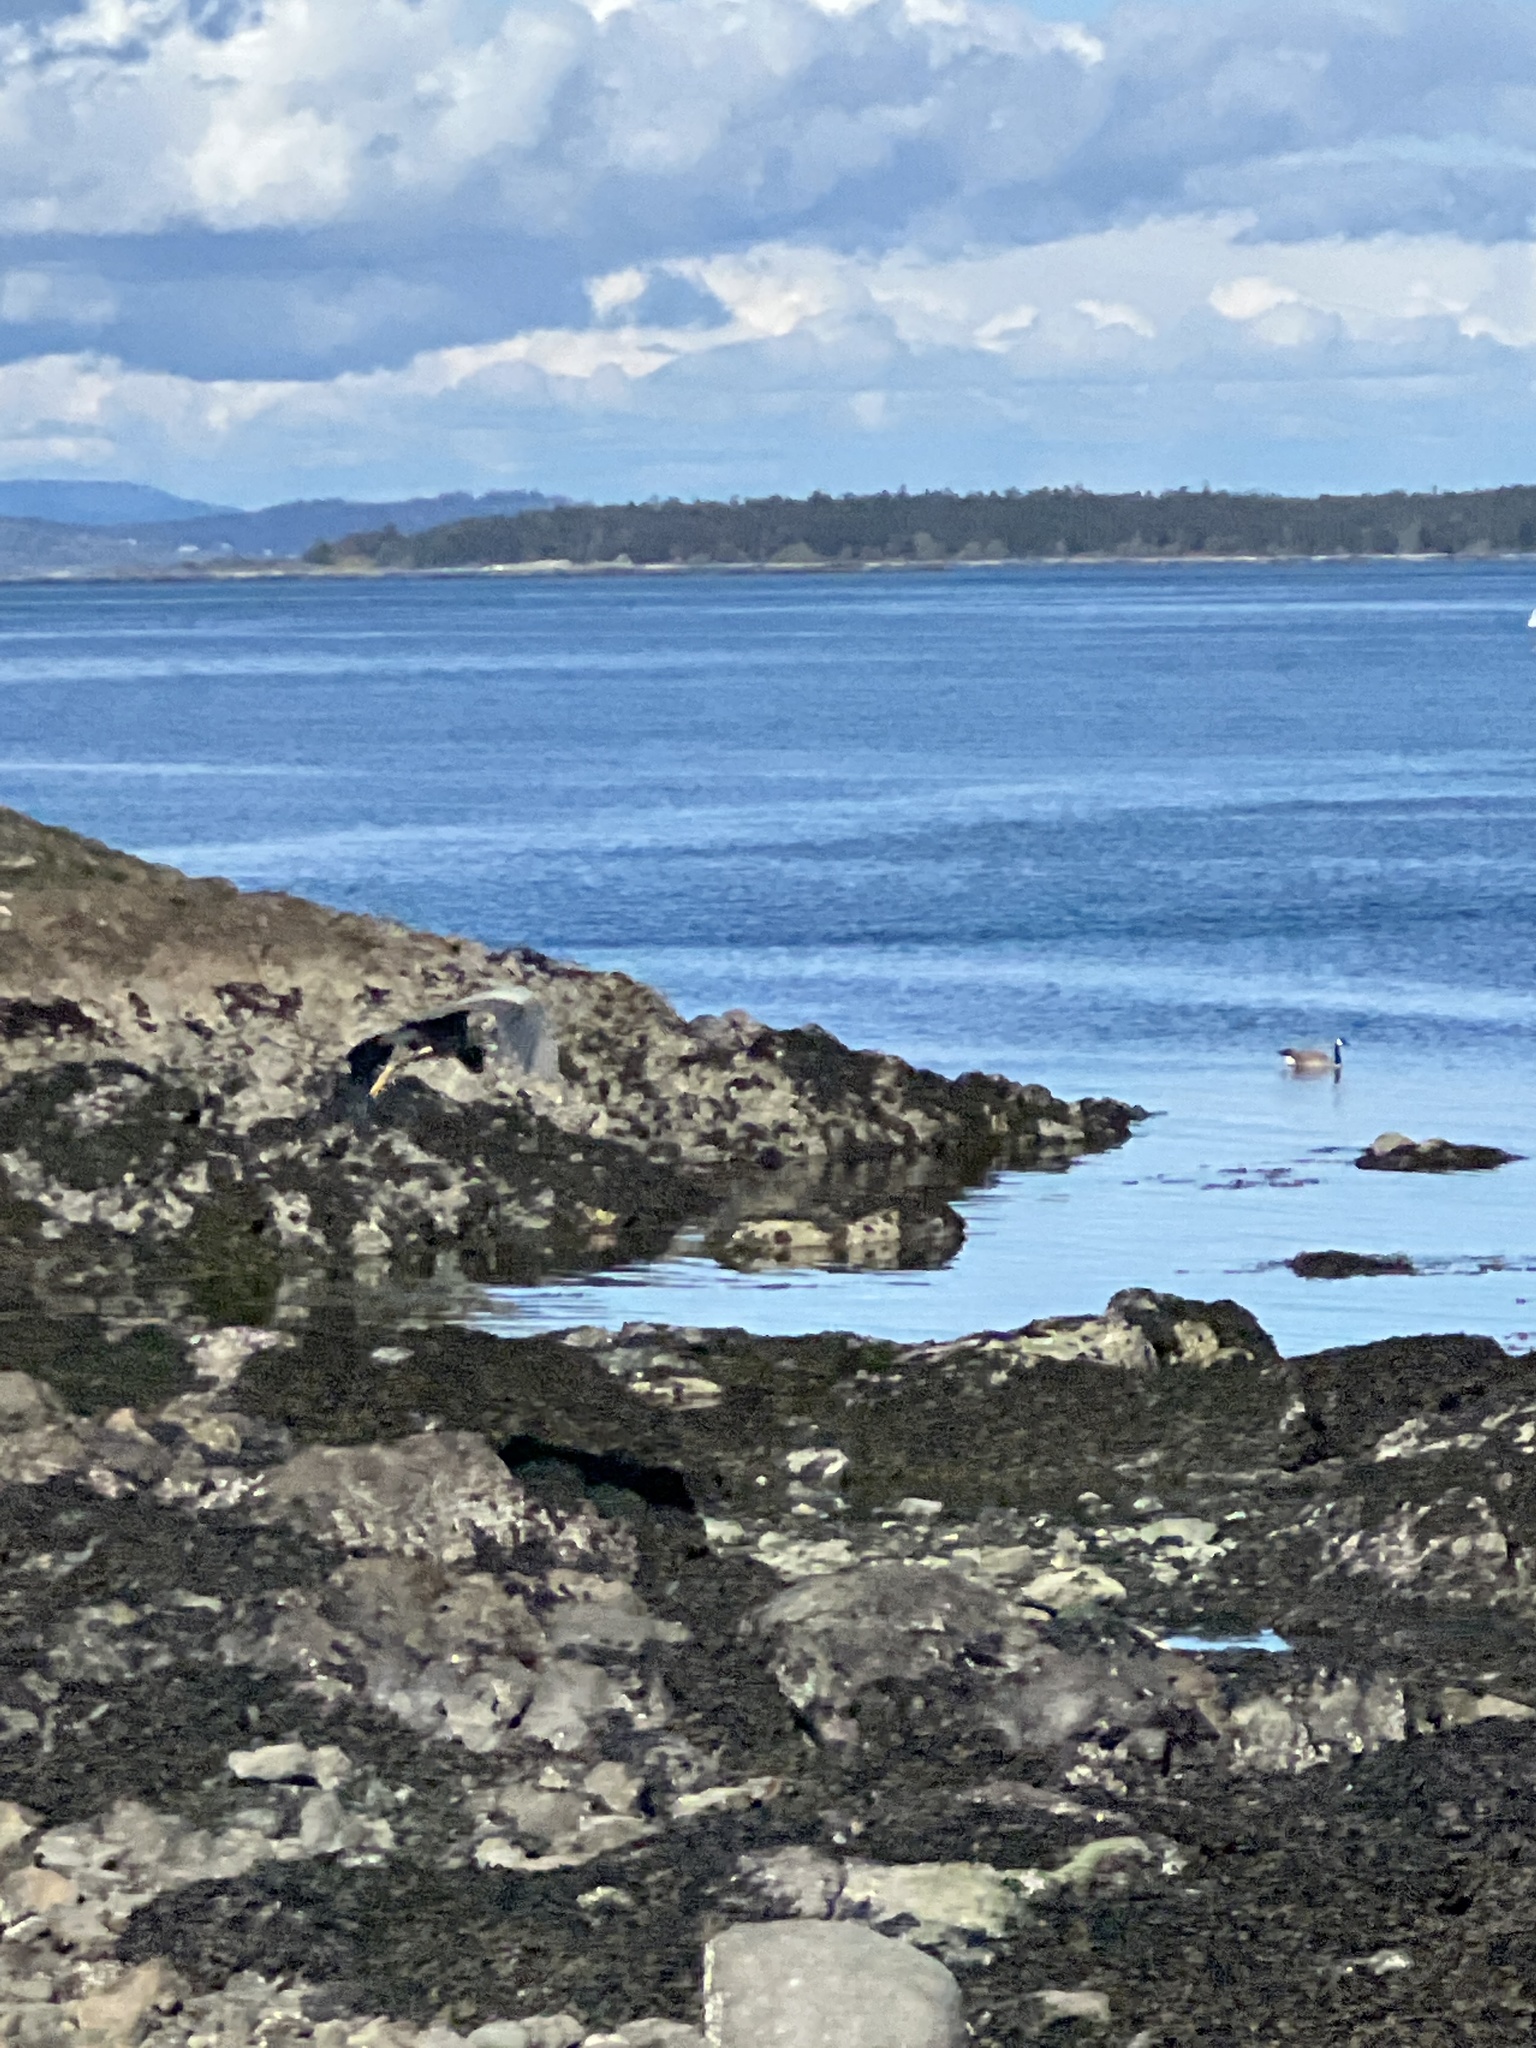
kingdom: Animalia
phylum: Chordata
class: Aves
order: Pelecaniformes
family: Ardeidae
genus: Ardea
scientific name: Ardea herodias
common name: Great blue heron
